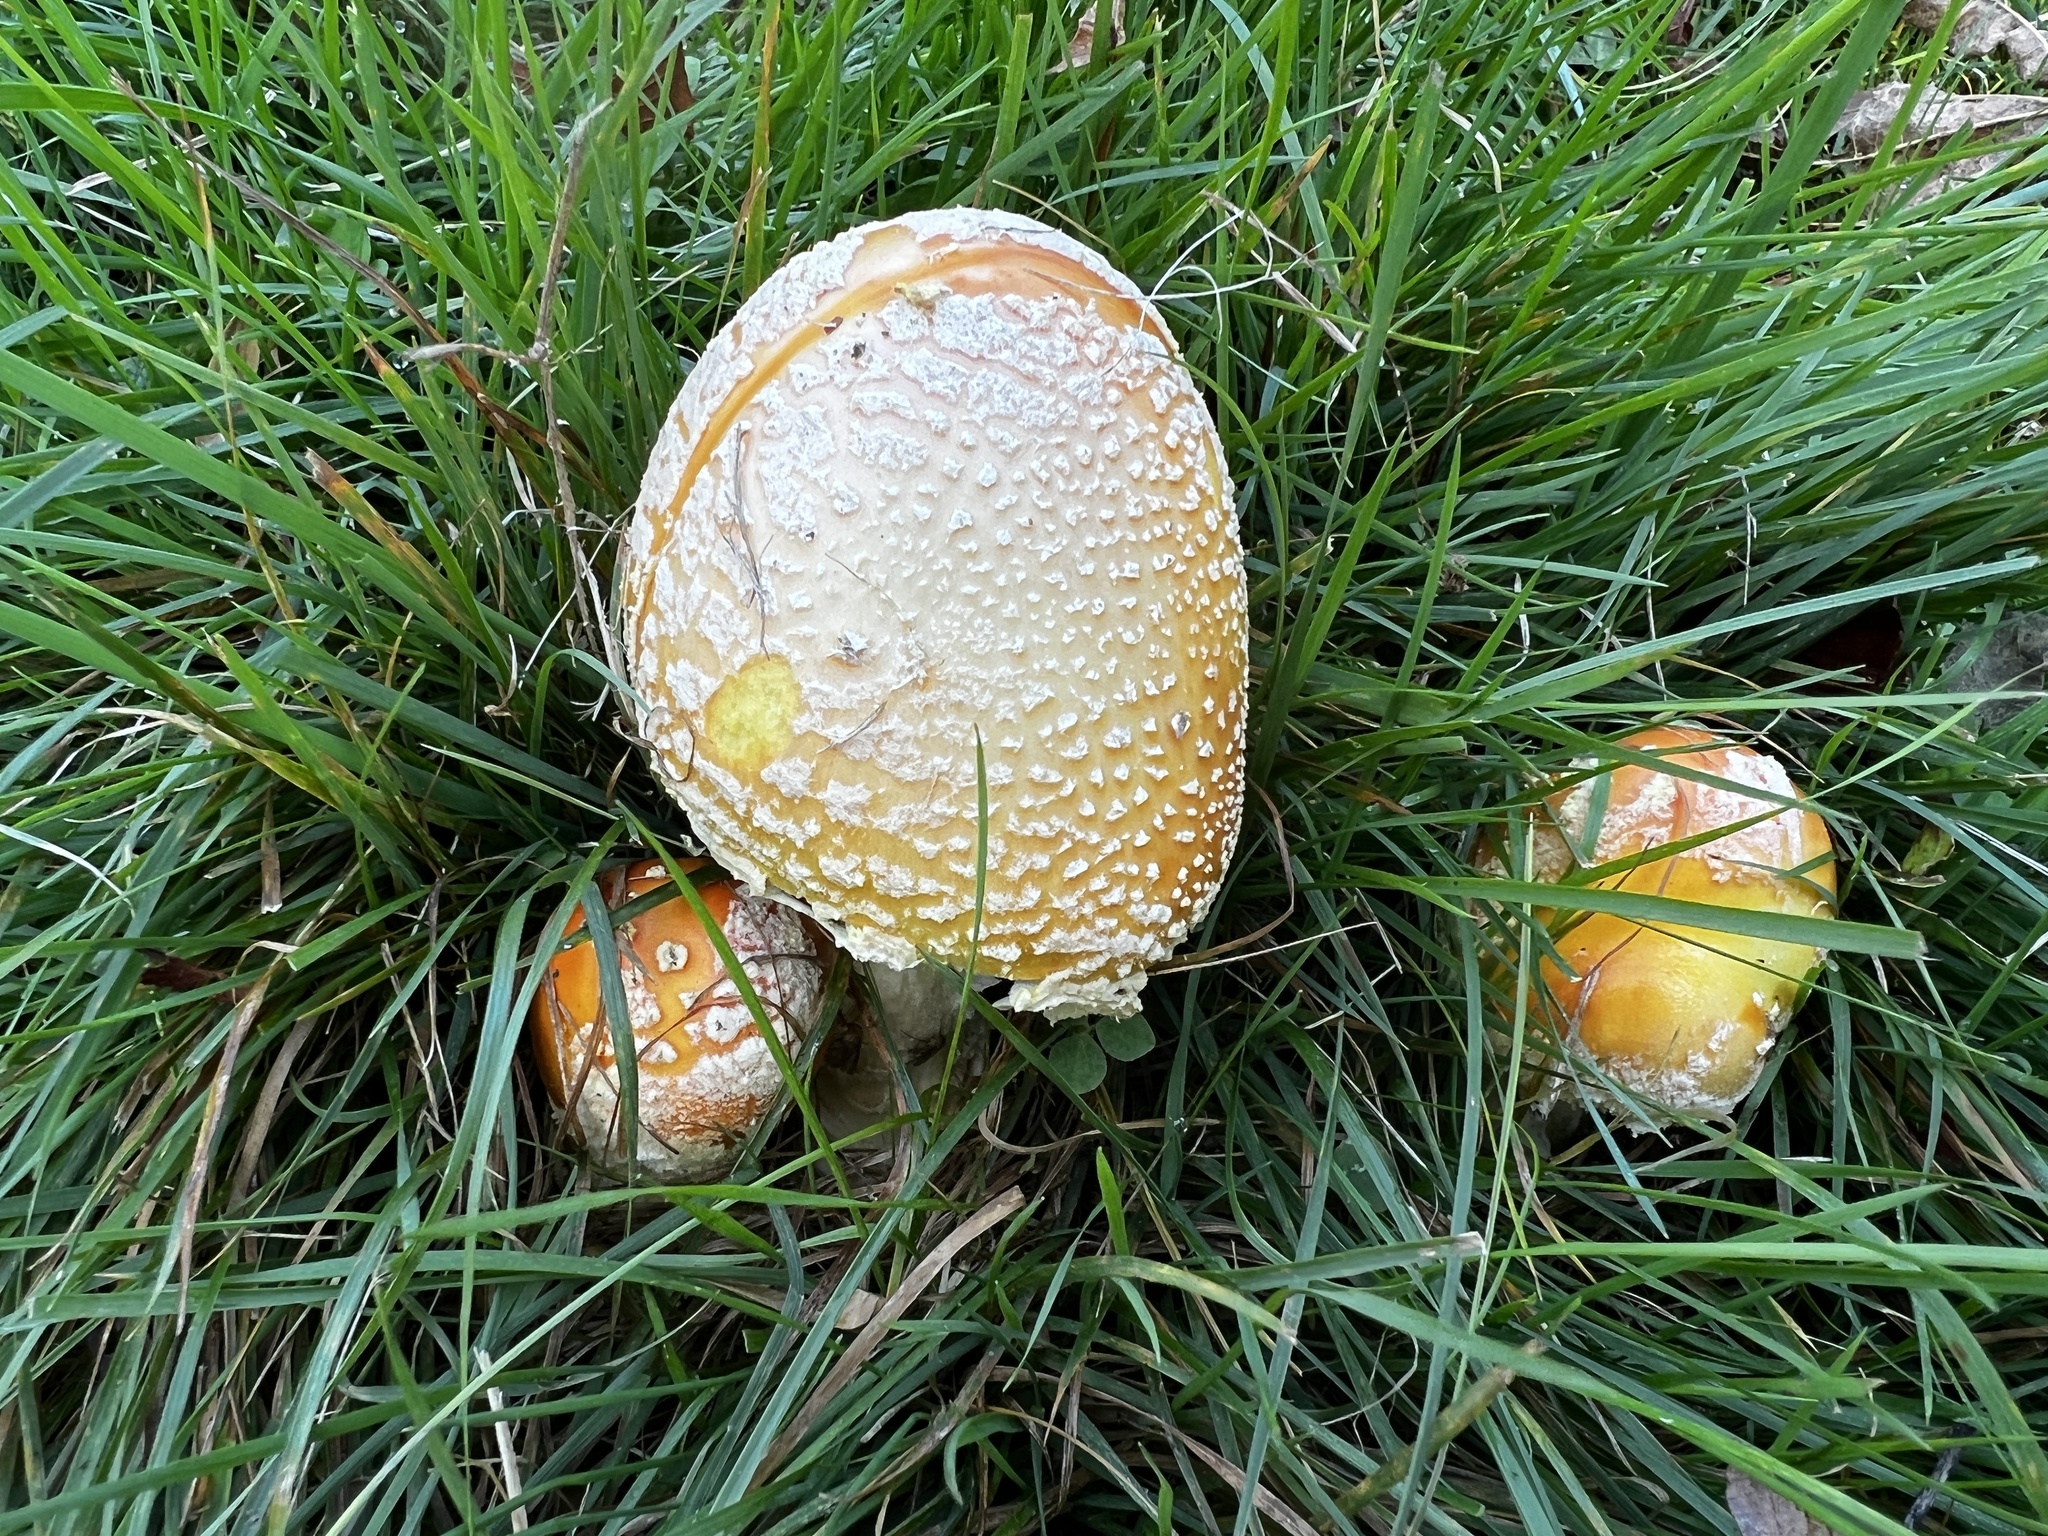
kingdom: Fungi
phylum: Basidiomycota
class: Agaricomycetes
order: Agaricales
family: Amanitaceae
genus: Amanita
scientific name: Amanita muscaria
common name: Fly agaric
